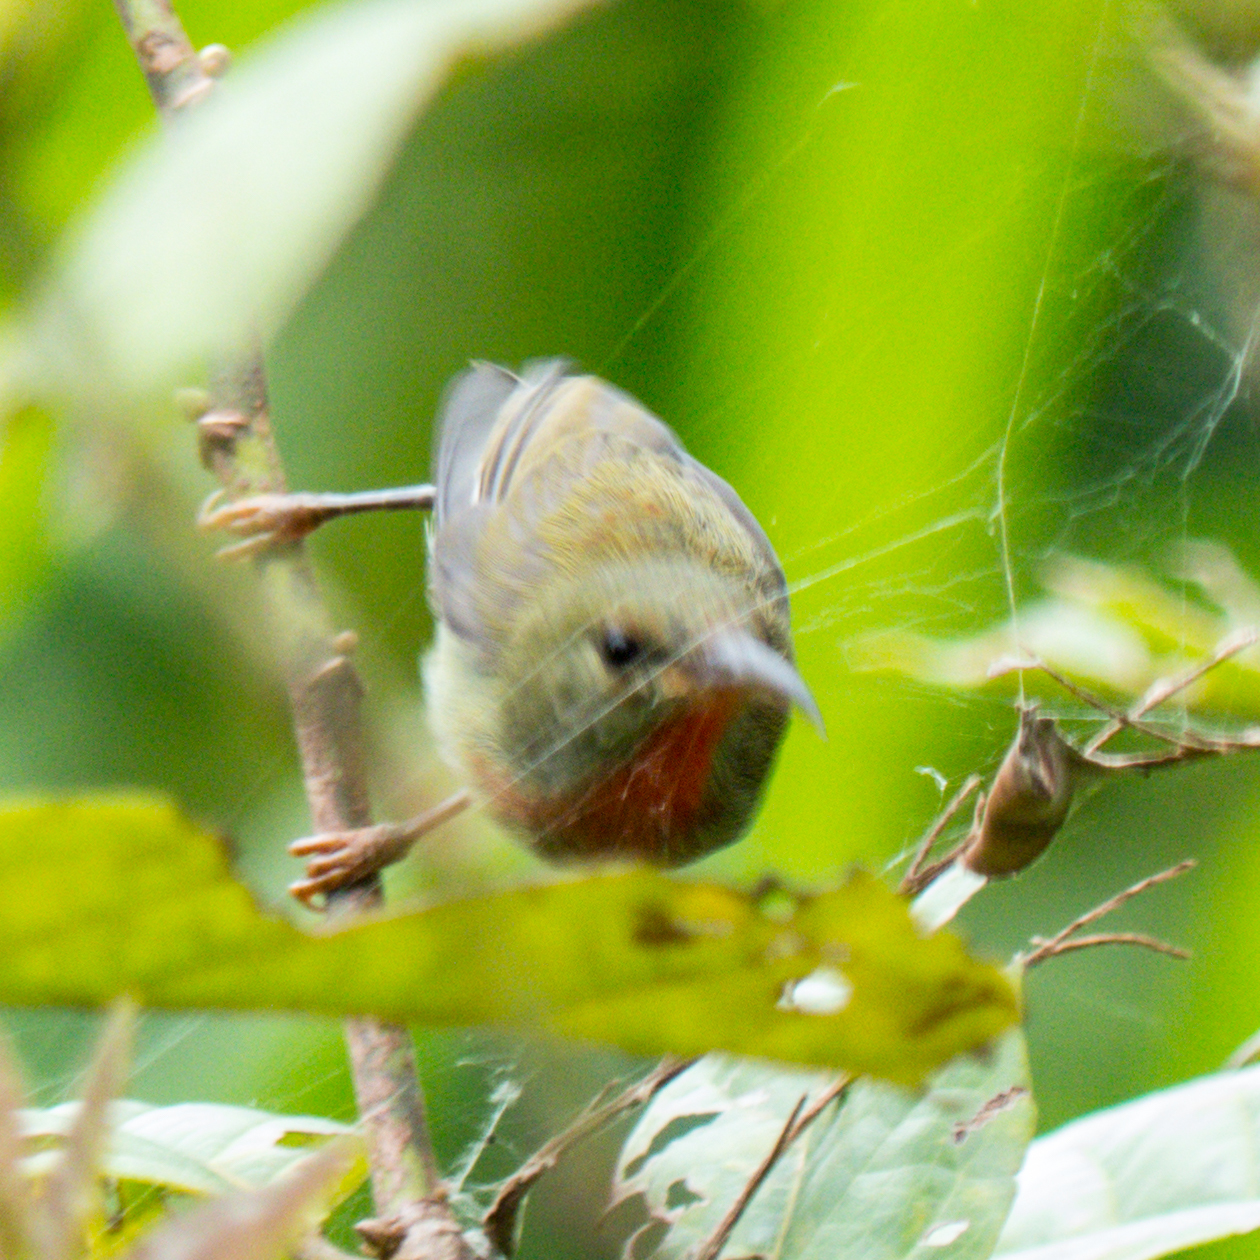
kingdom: Animalia
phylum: Chordata
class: Aves
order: Passeriformes
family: Nectariniidae
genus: Aethopyga
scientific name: Aethopyga siparaja
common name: Crimson sunbird
